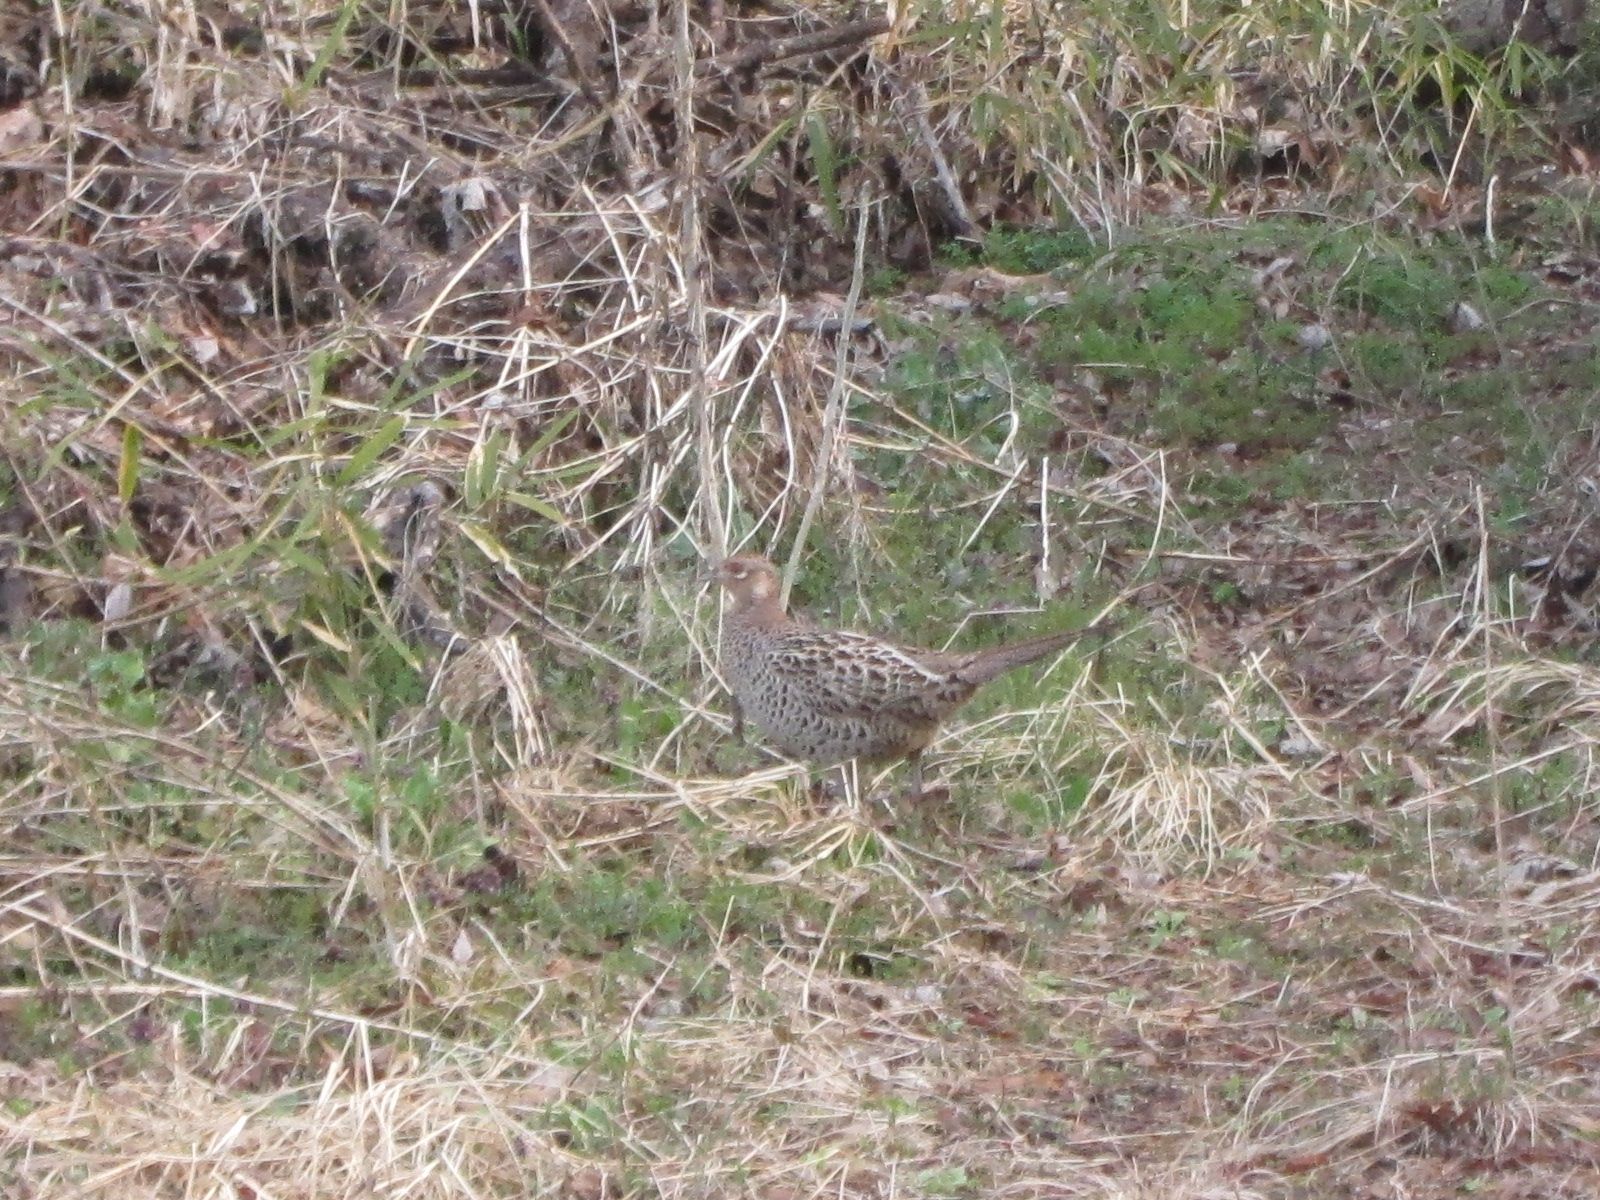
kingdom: Animalia
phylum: Chordata
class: Aves
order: Galliformes
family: Phasianidae
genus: Phasianus
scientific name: Phasianus versicolor
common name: Green pheasant
